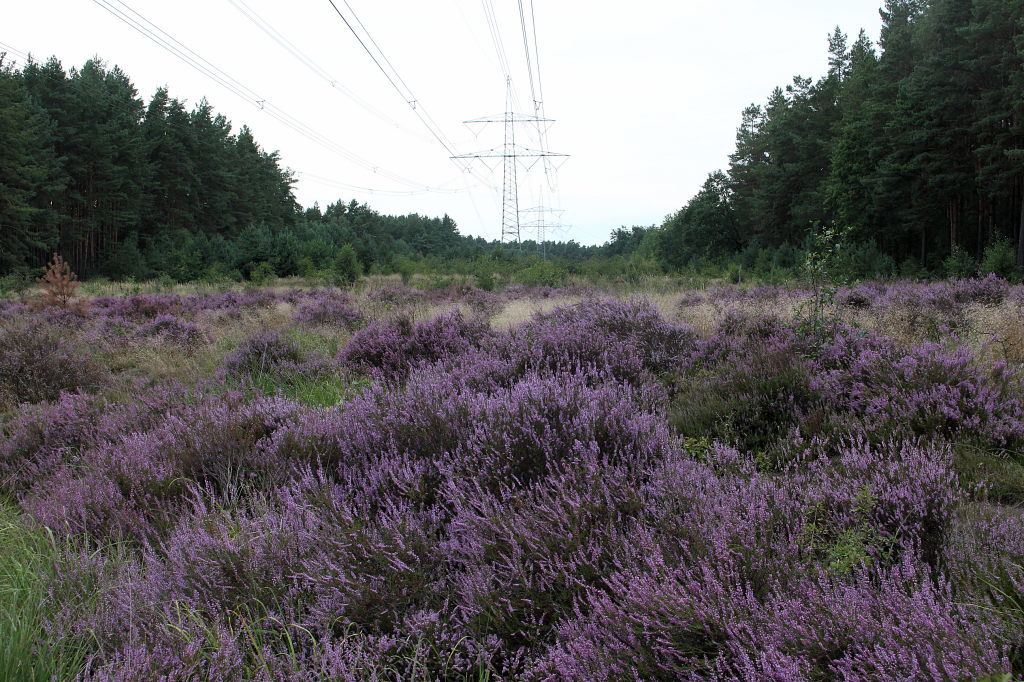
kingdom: Plantae
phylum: Tracheophyta
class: Magnoliopsida
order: Ericales
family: Ericaceae
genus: Calluna
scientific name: Calluna vulgaris
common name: Heather
